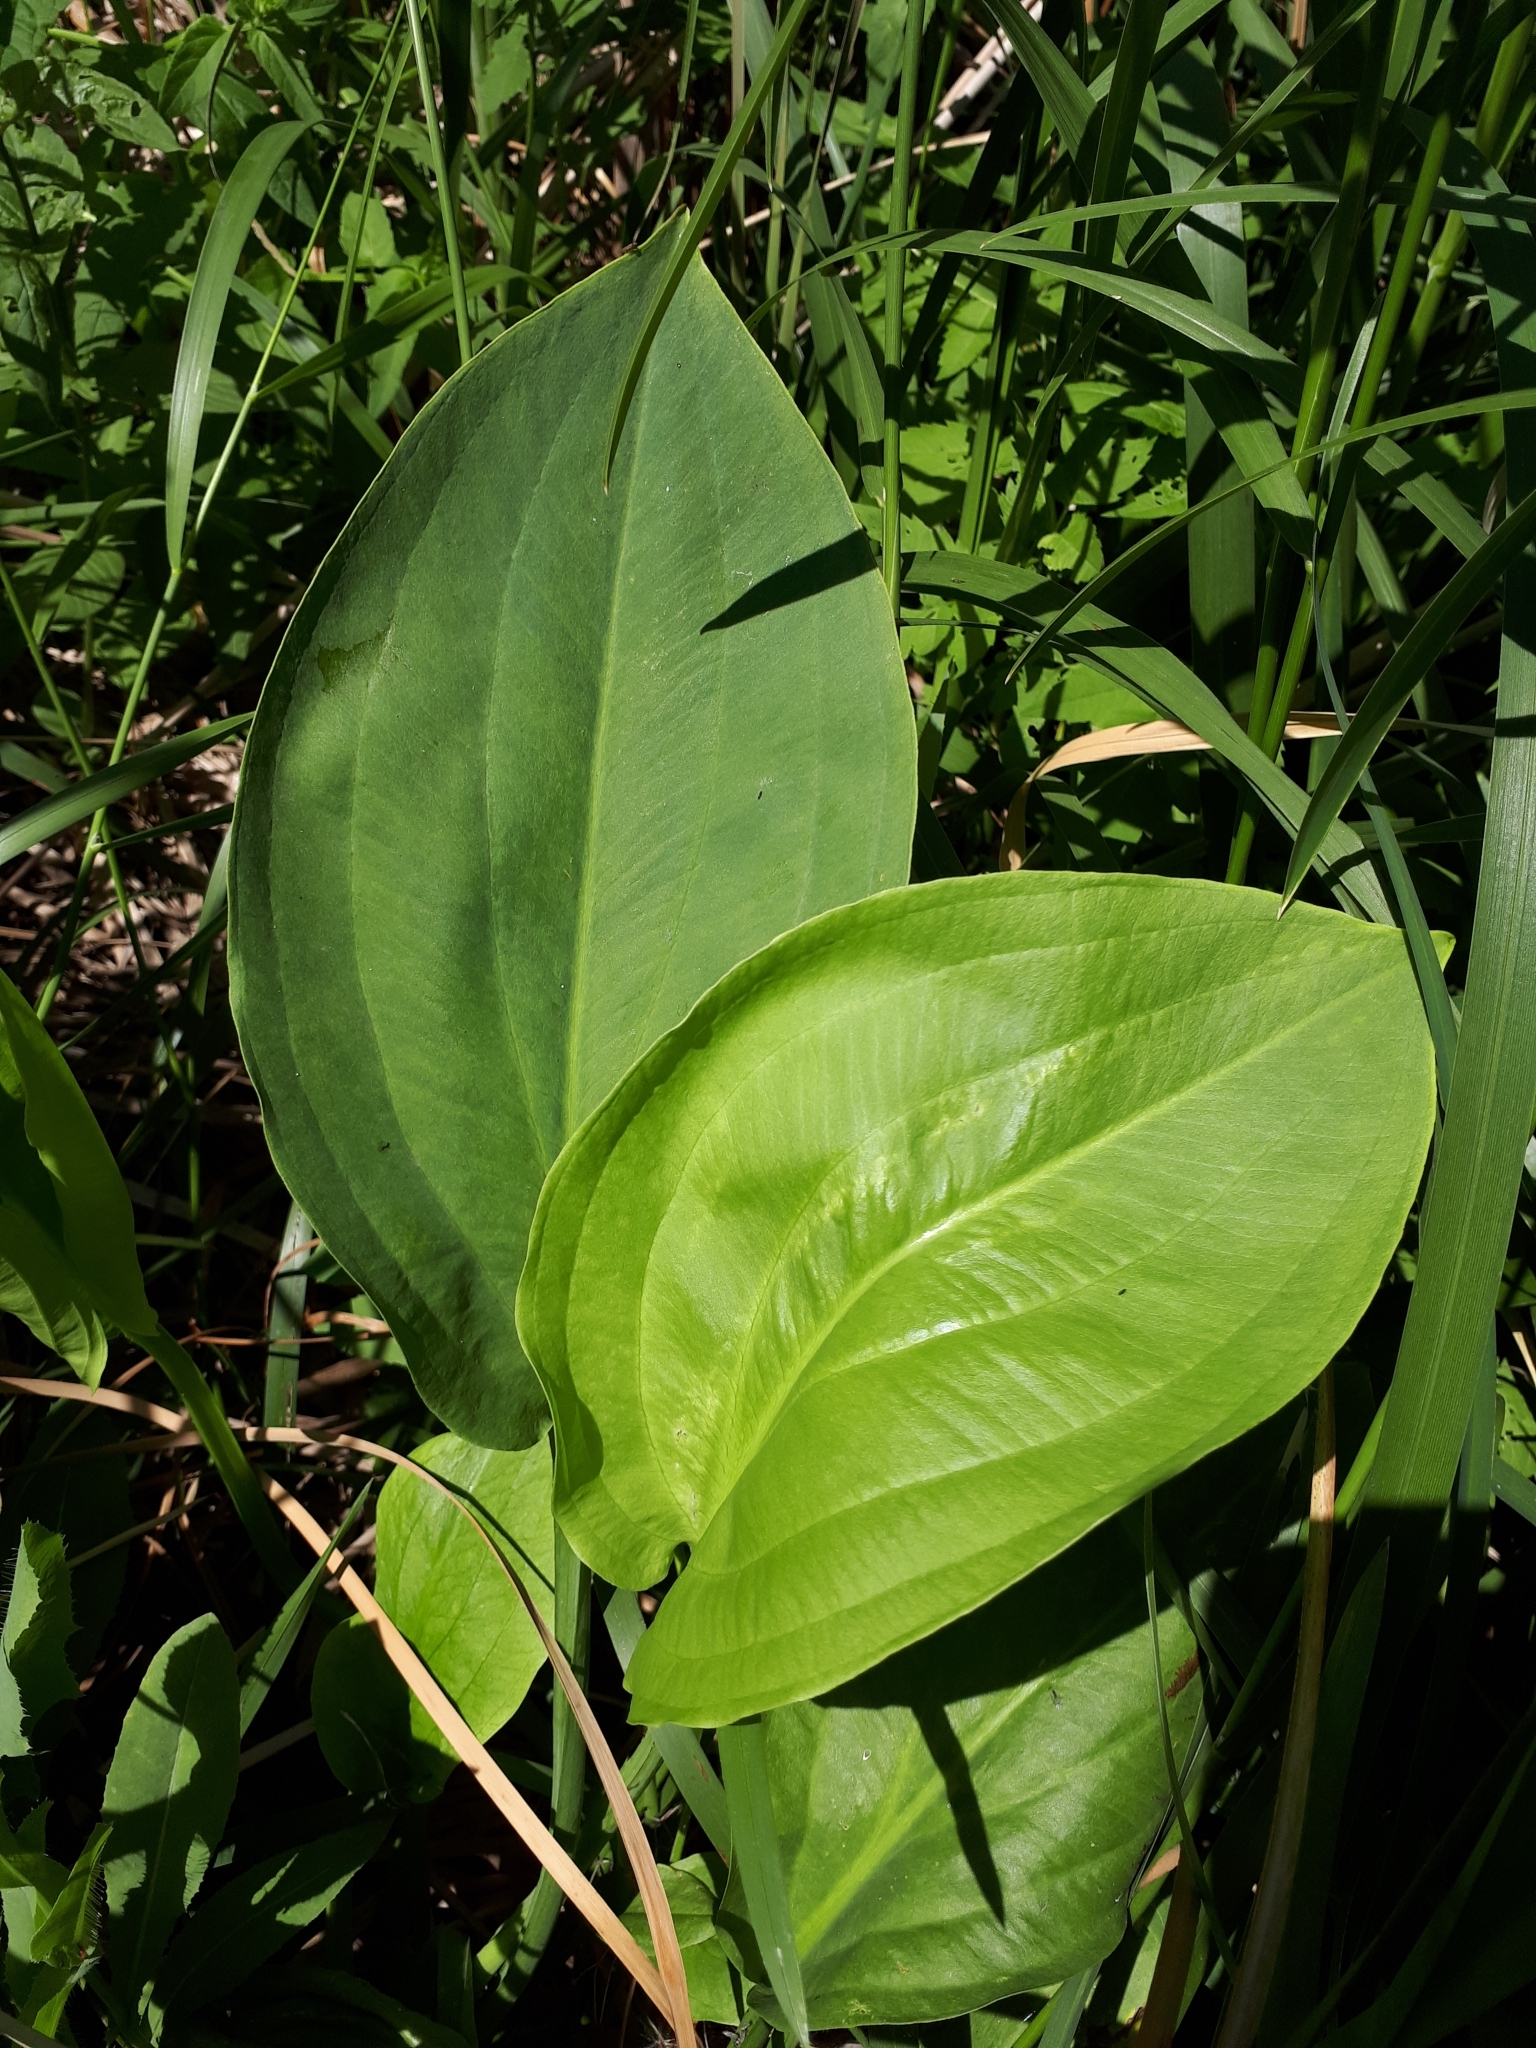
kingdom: Plantae
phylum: Tracheophyta
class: Liliopsida
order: Alismatales
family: Alismataceae
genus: Alisma
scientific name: Alisma plantago-aquatica
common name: Water-plantain
